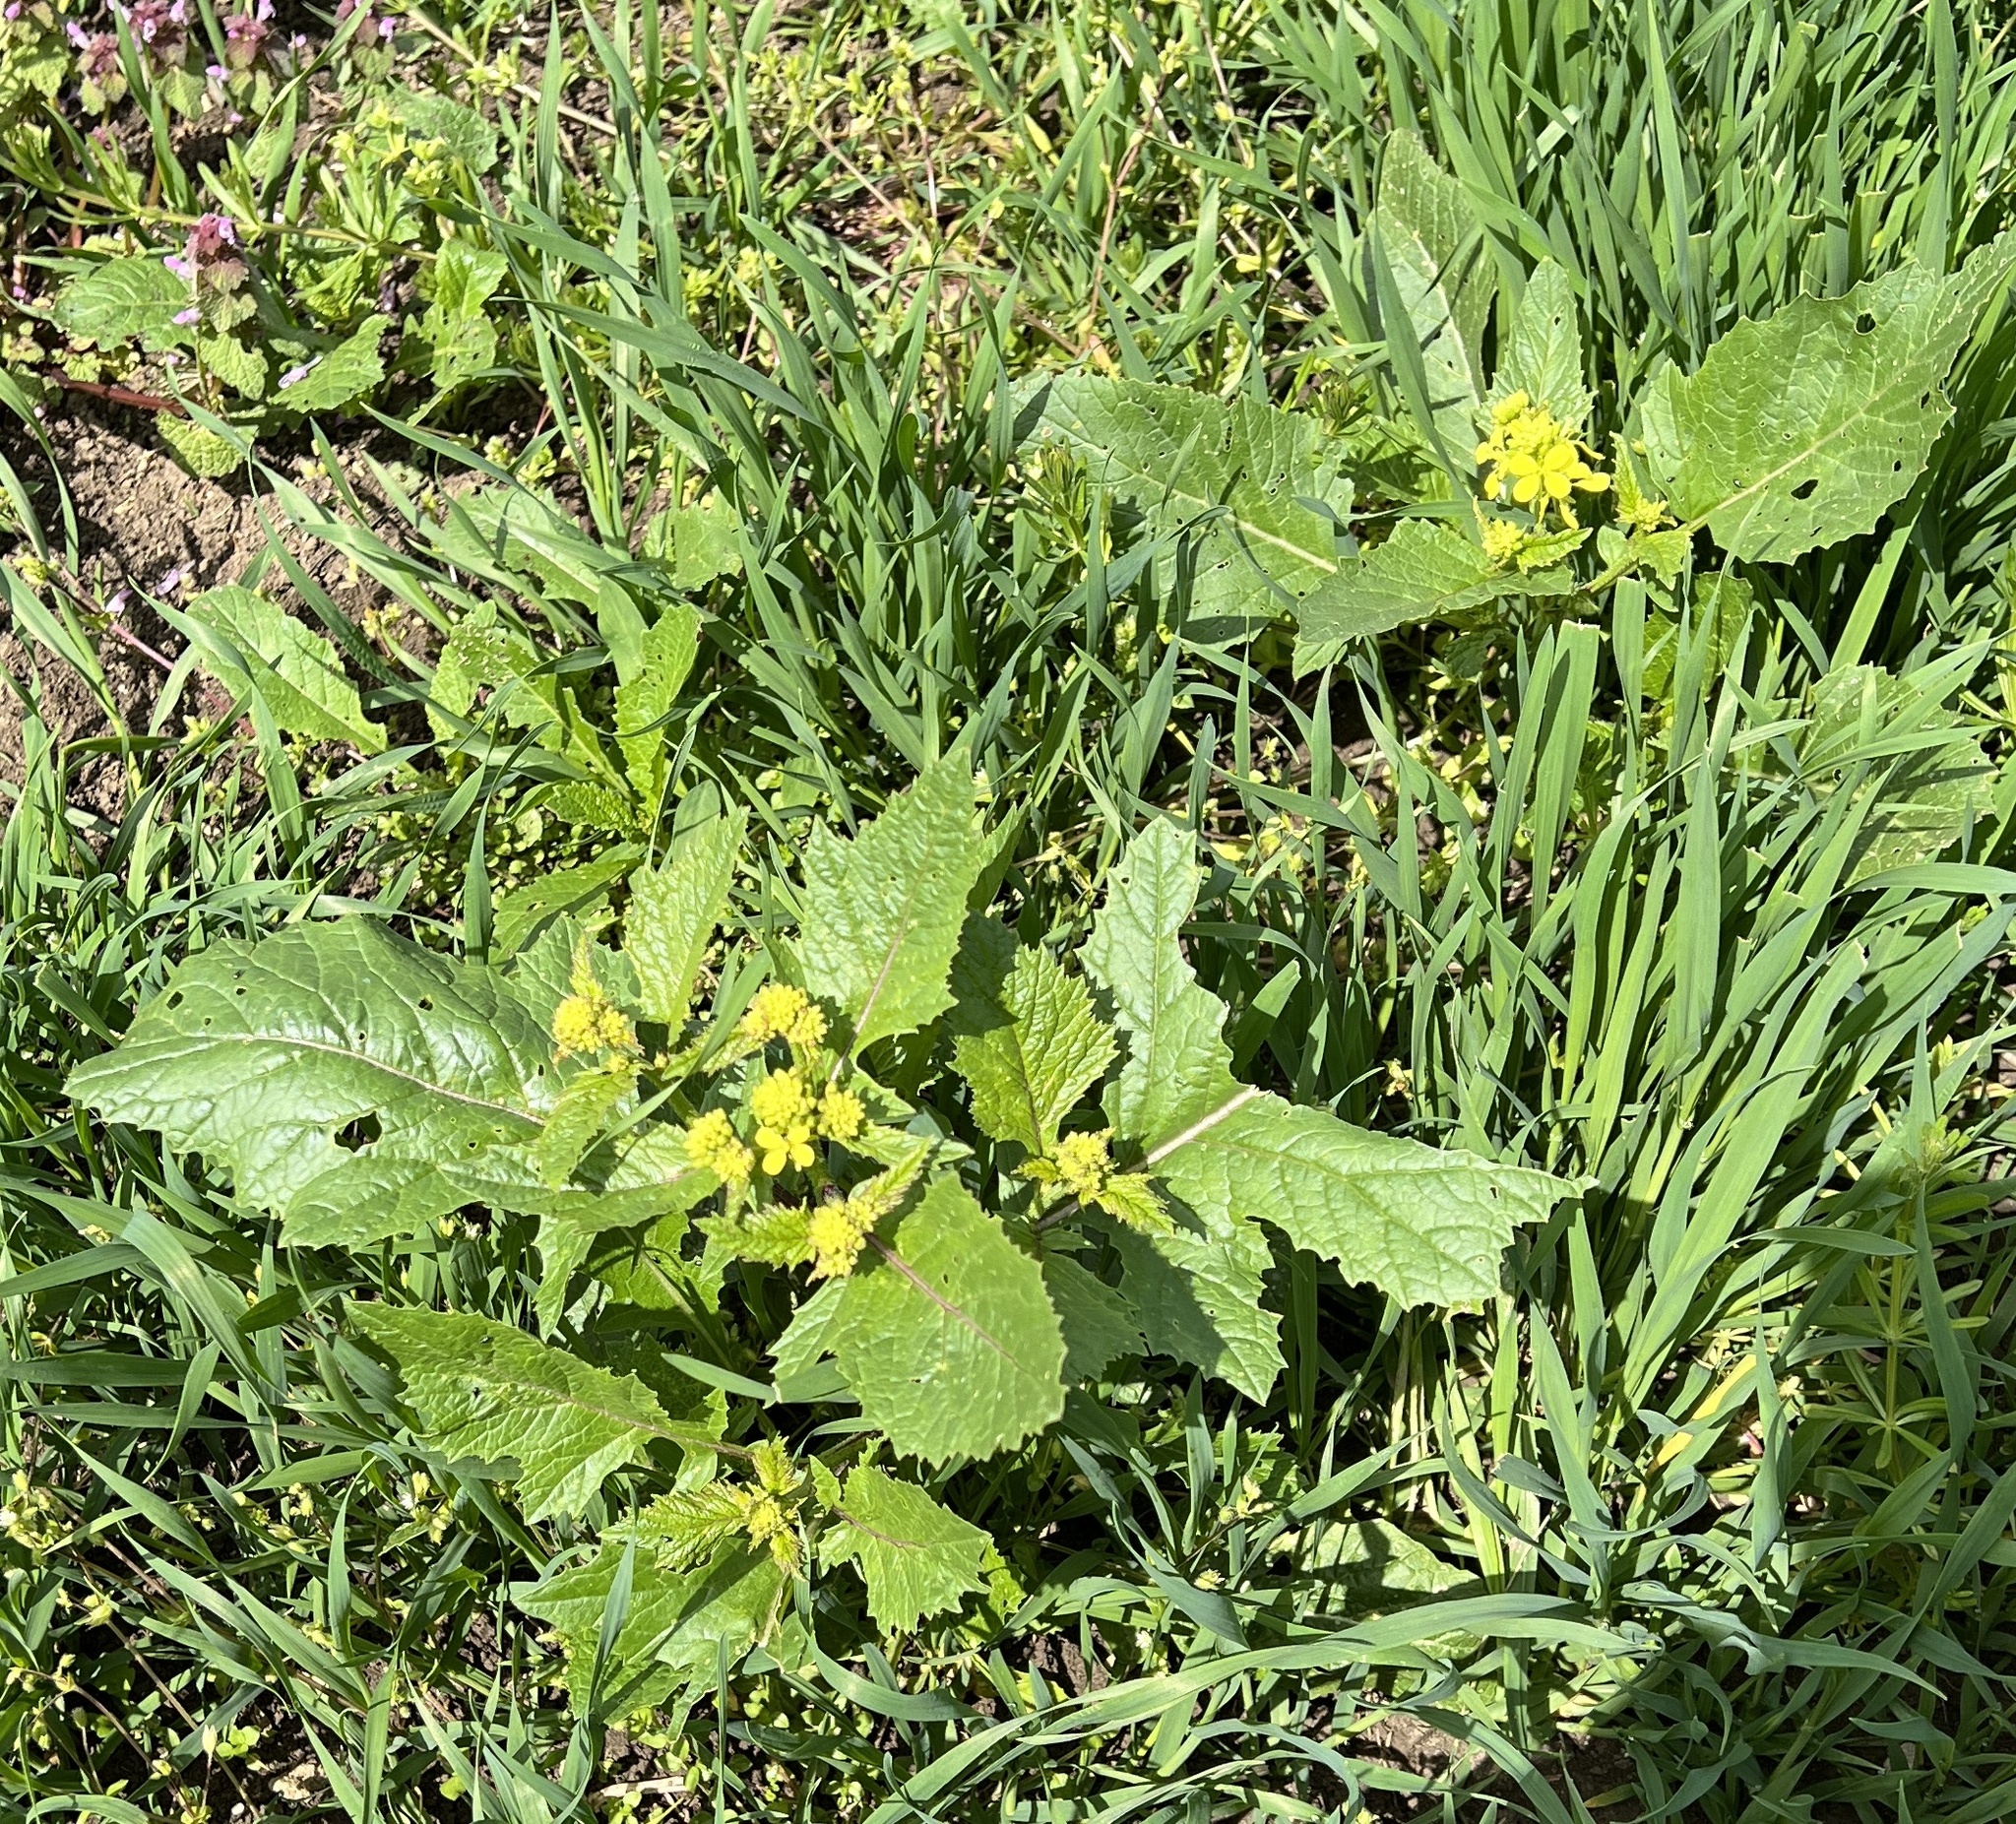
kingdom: Plantae
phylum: Tracheophyta
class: Magnoliopsida
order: Brassicales
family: Brassicaceae
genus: Sinapis
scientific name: Sinapis arvensis
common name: Charlock
